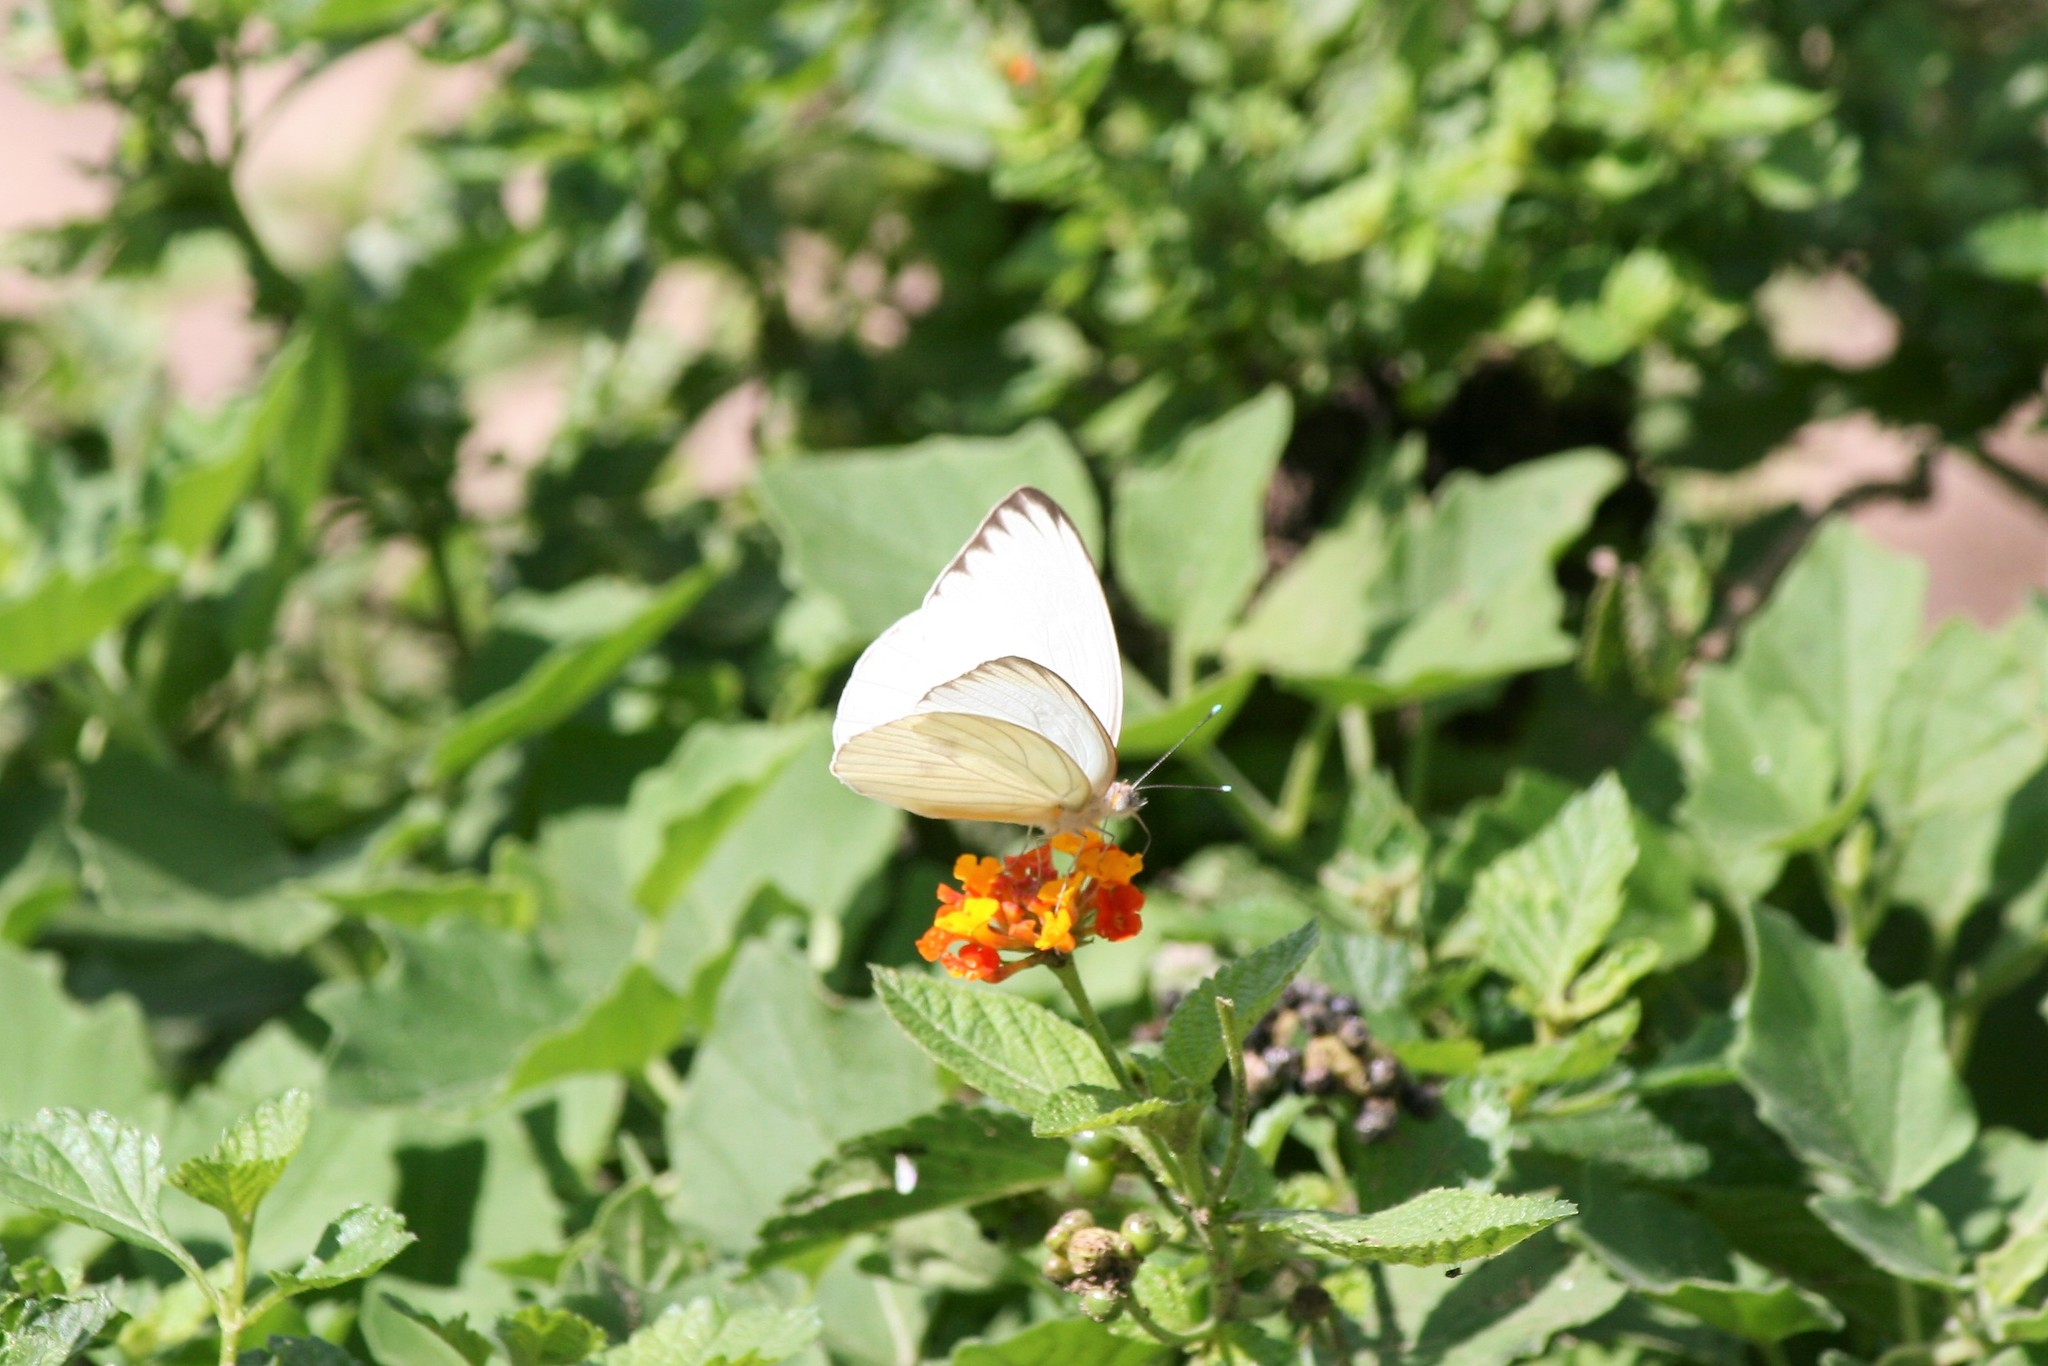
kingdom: Animalia
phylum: Arthropoda
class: Insecta
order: Lepidoptera
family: Pieridae
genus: Ascia
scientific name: Ascia monuste
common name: Great southern white
